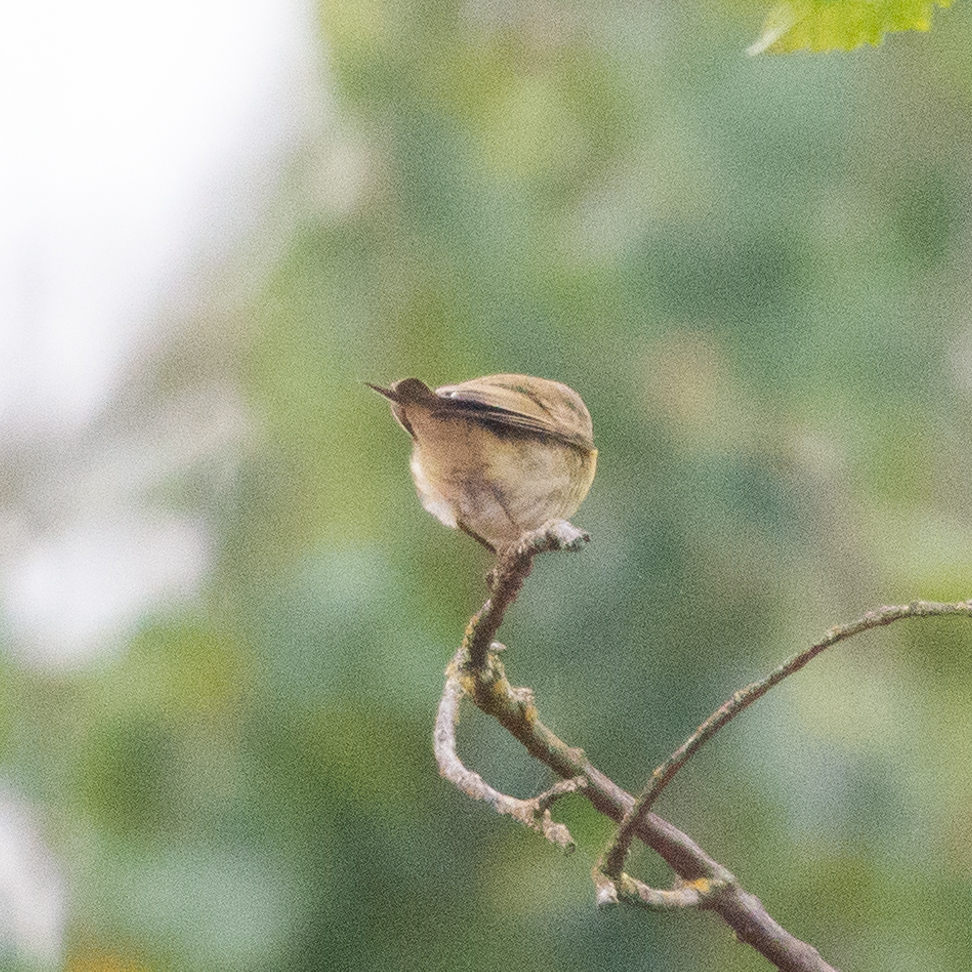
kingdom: Animalia
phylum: Chordata
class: Aves
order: Passeriformes
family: Phylloscopidae
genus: Phylloscopus
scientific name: Phylloscopus trochilus
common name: Willow warbler
